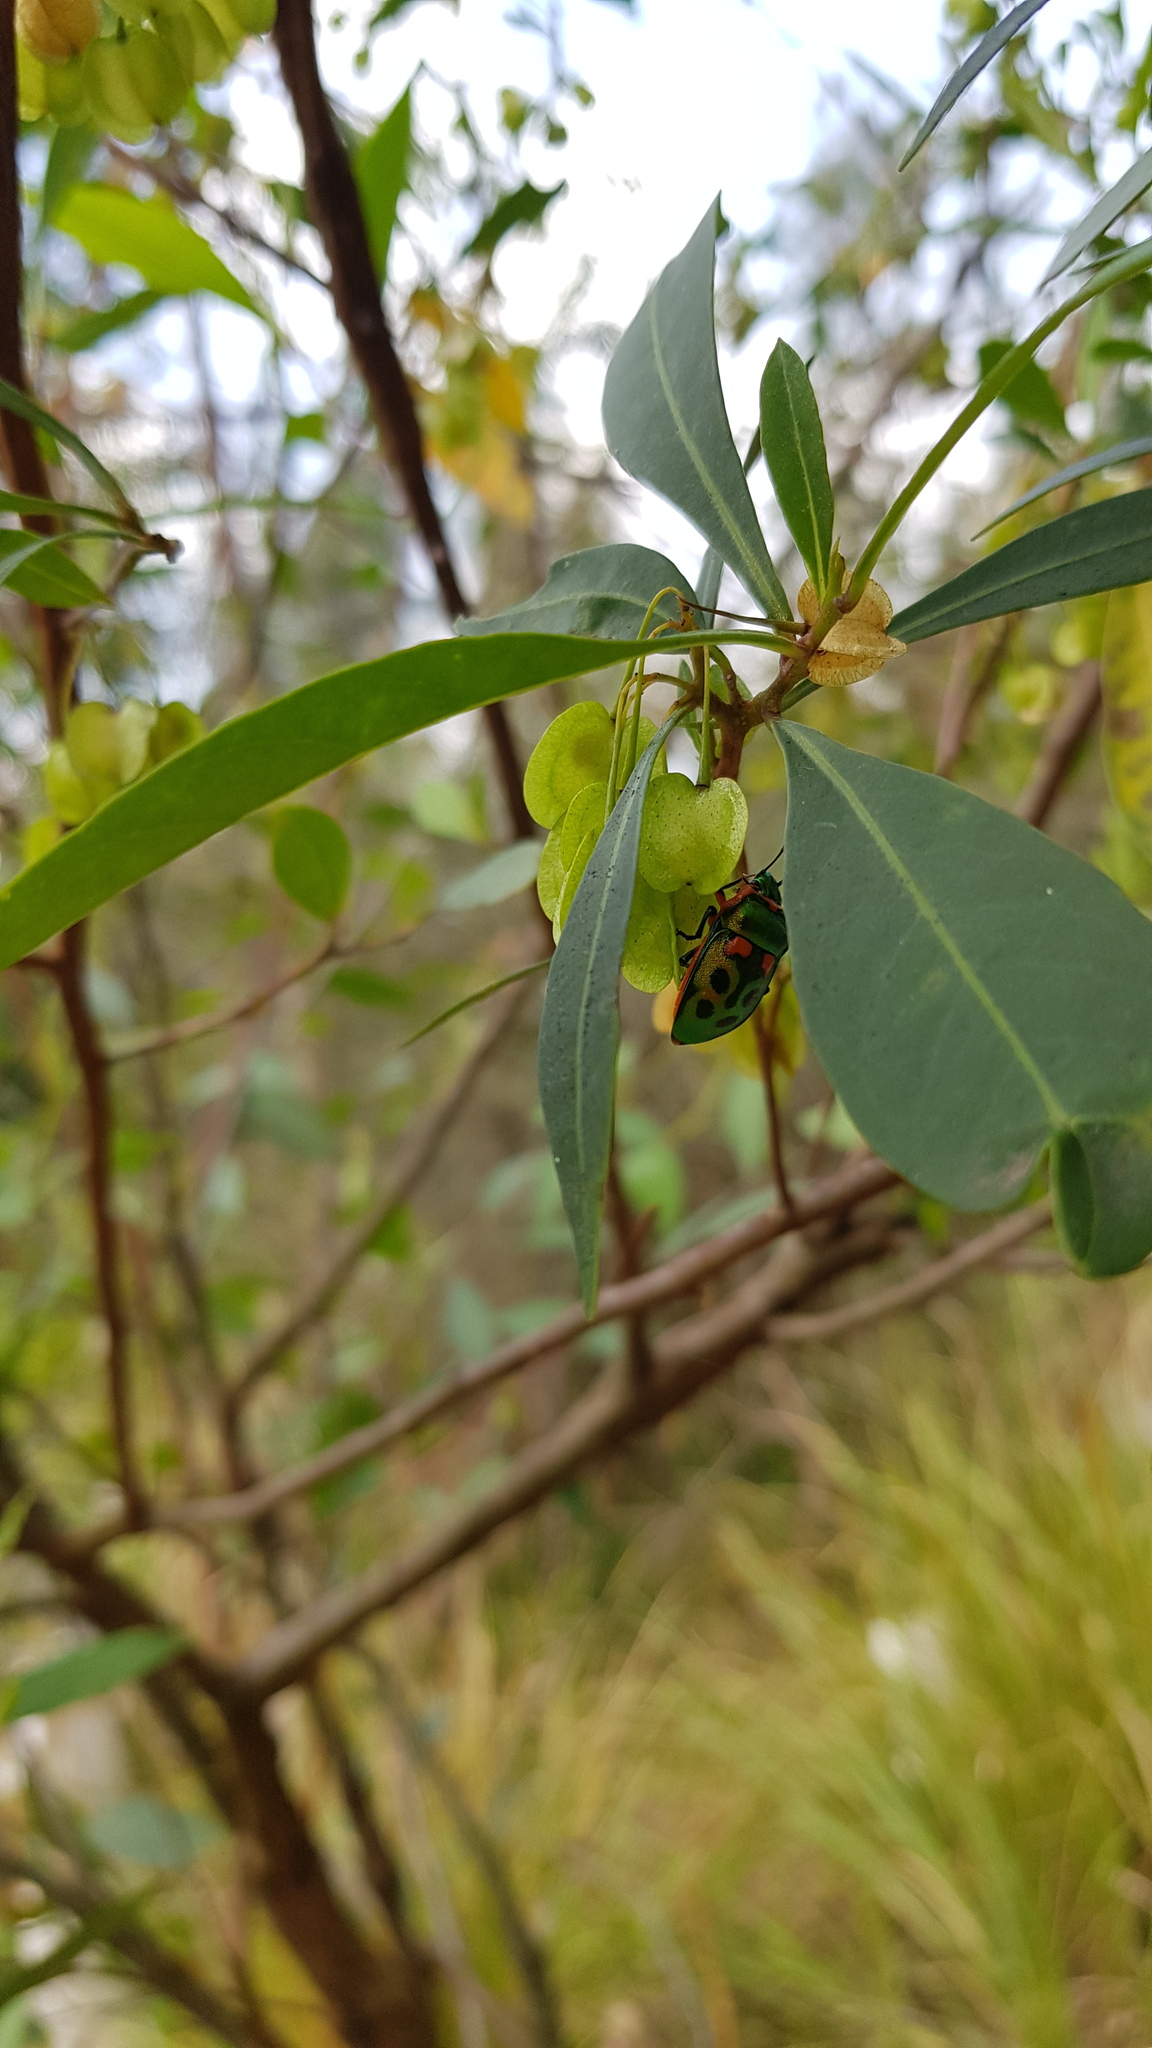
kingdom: Animalia
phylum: Arthropoda
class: Insecta
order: Hemiptera
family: Scutelleridae
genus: Scutiphora
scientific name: Scutiphora pedicellata
